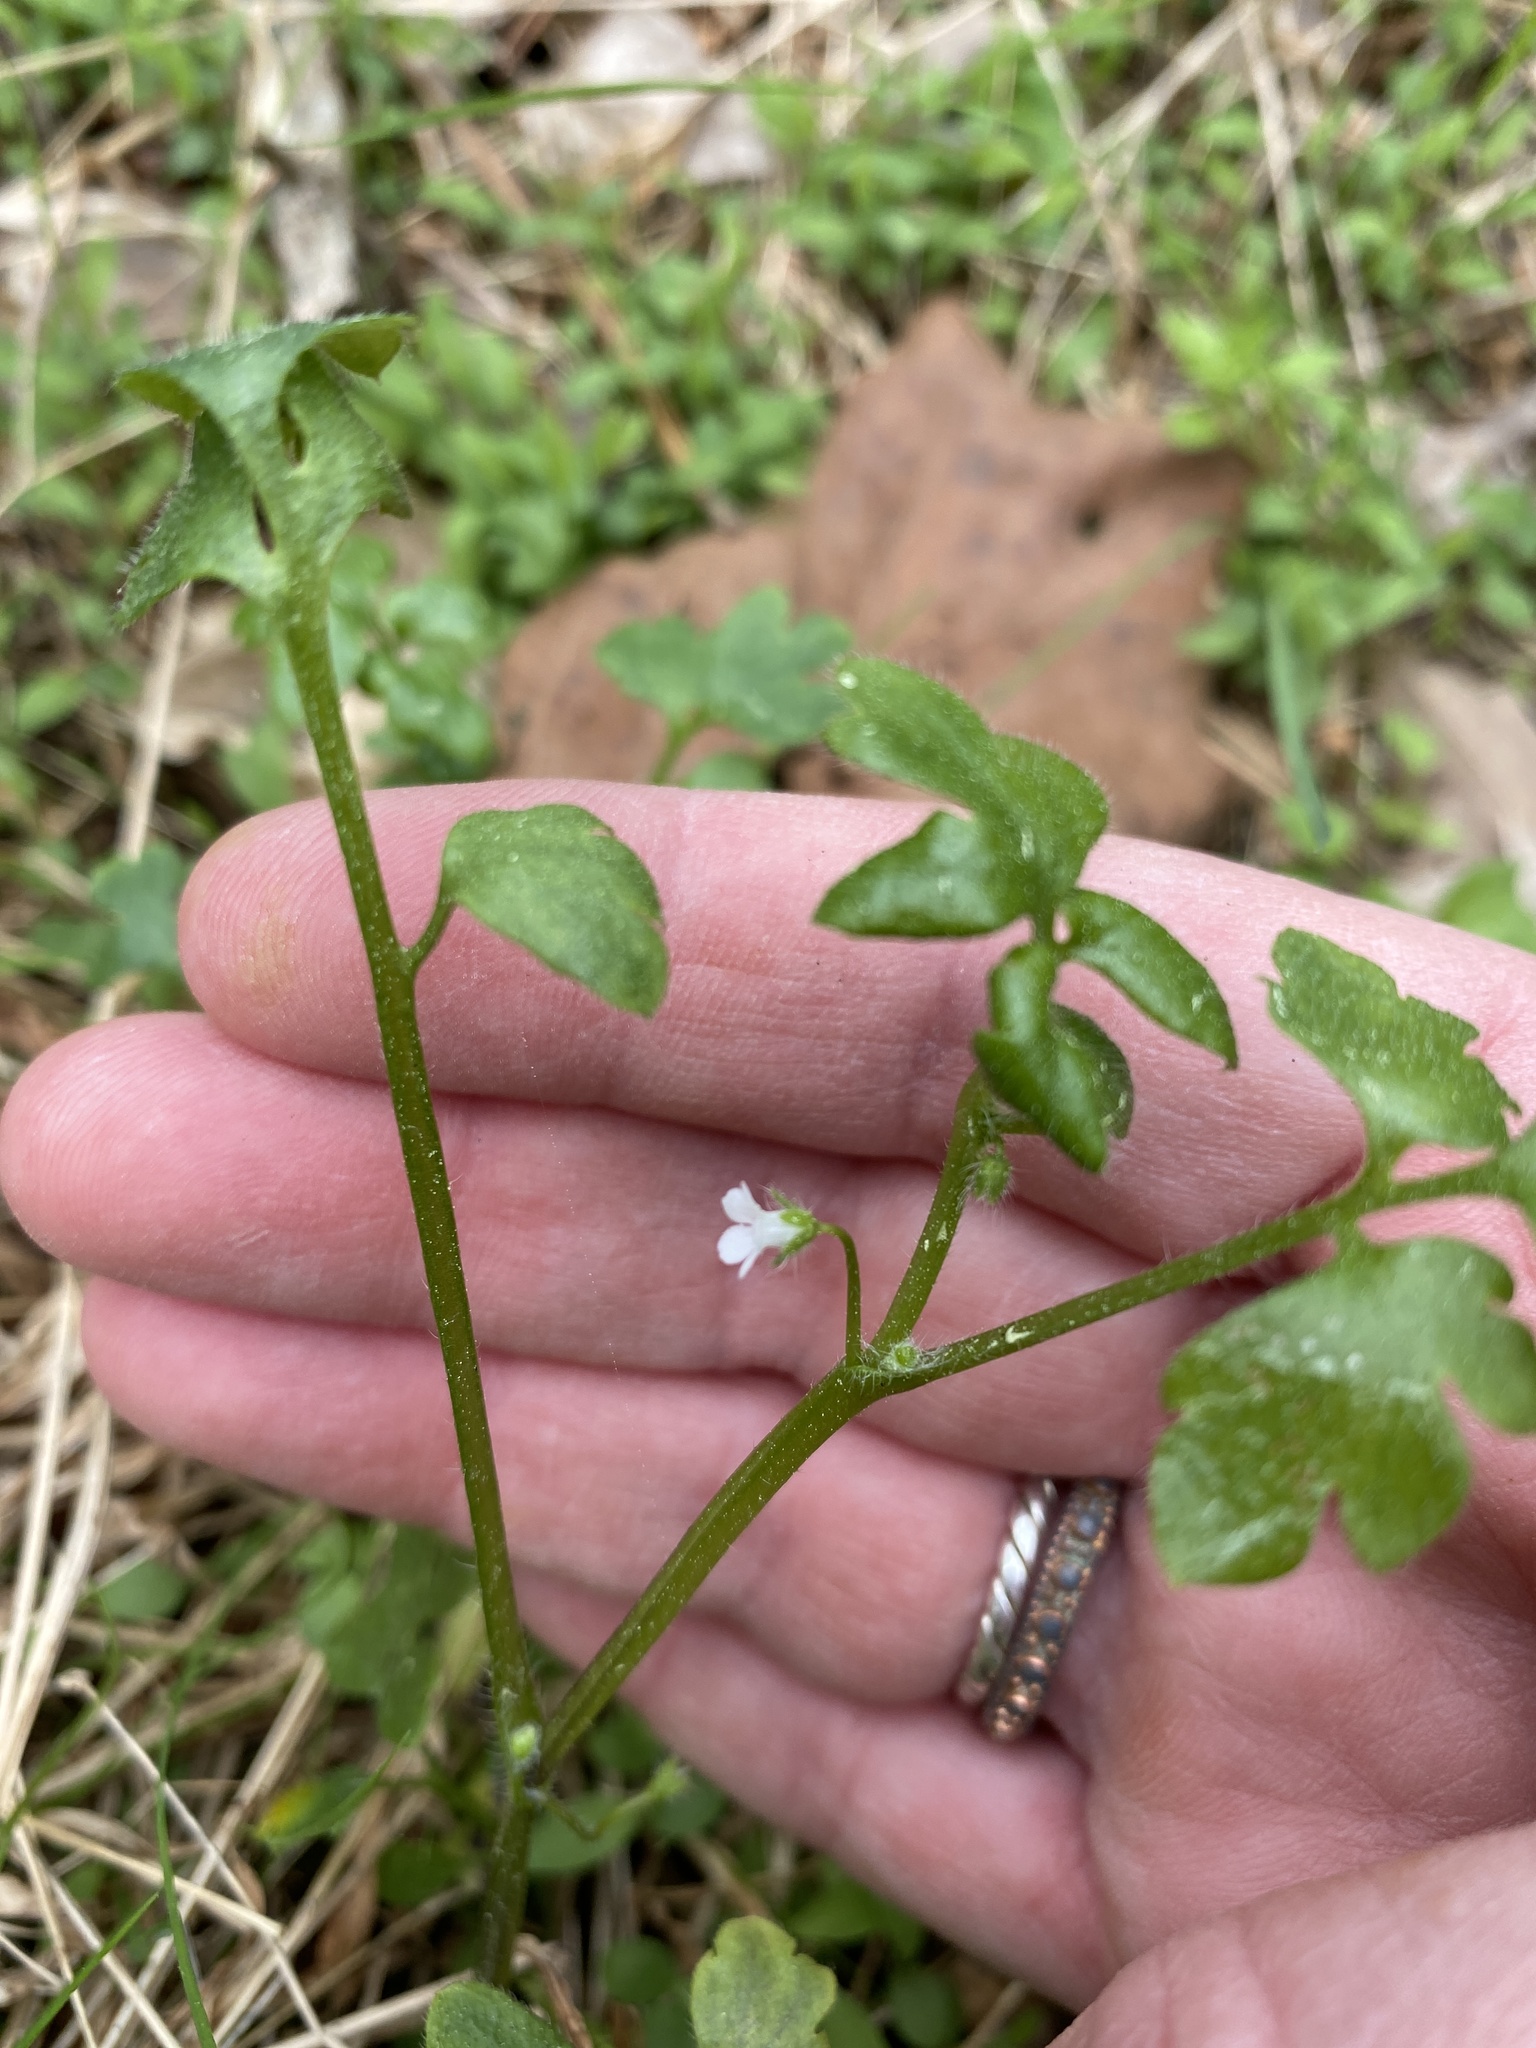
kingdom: Plantae
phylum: Tracheophyta
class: Magnoliopsida
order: Boraginales
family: Hydrophyllaceae
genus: Nemophila
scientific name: Nemophila aphylla
